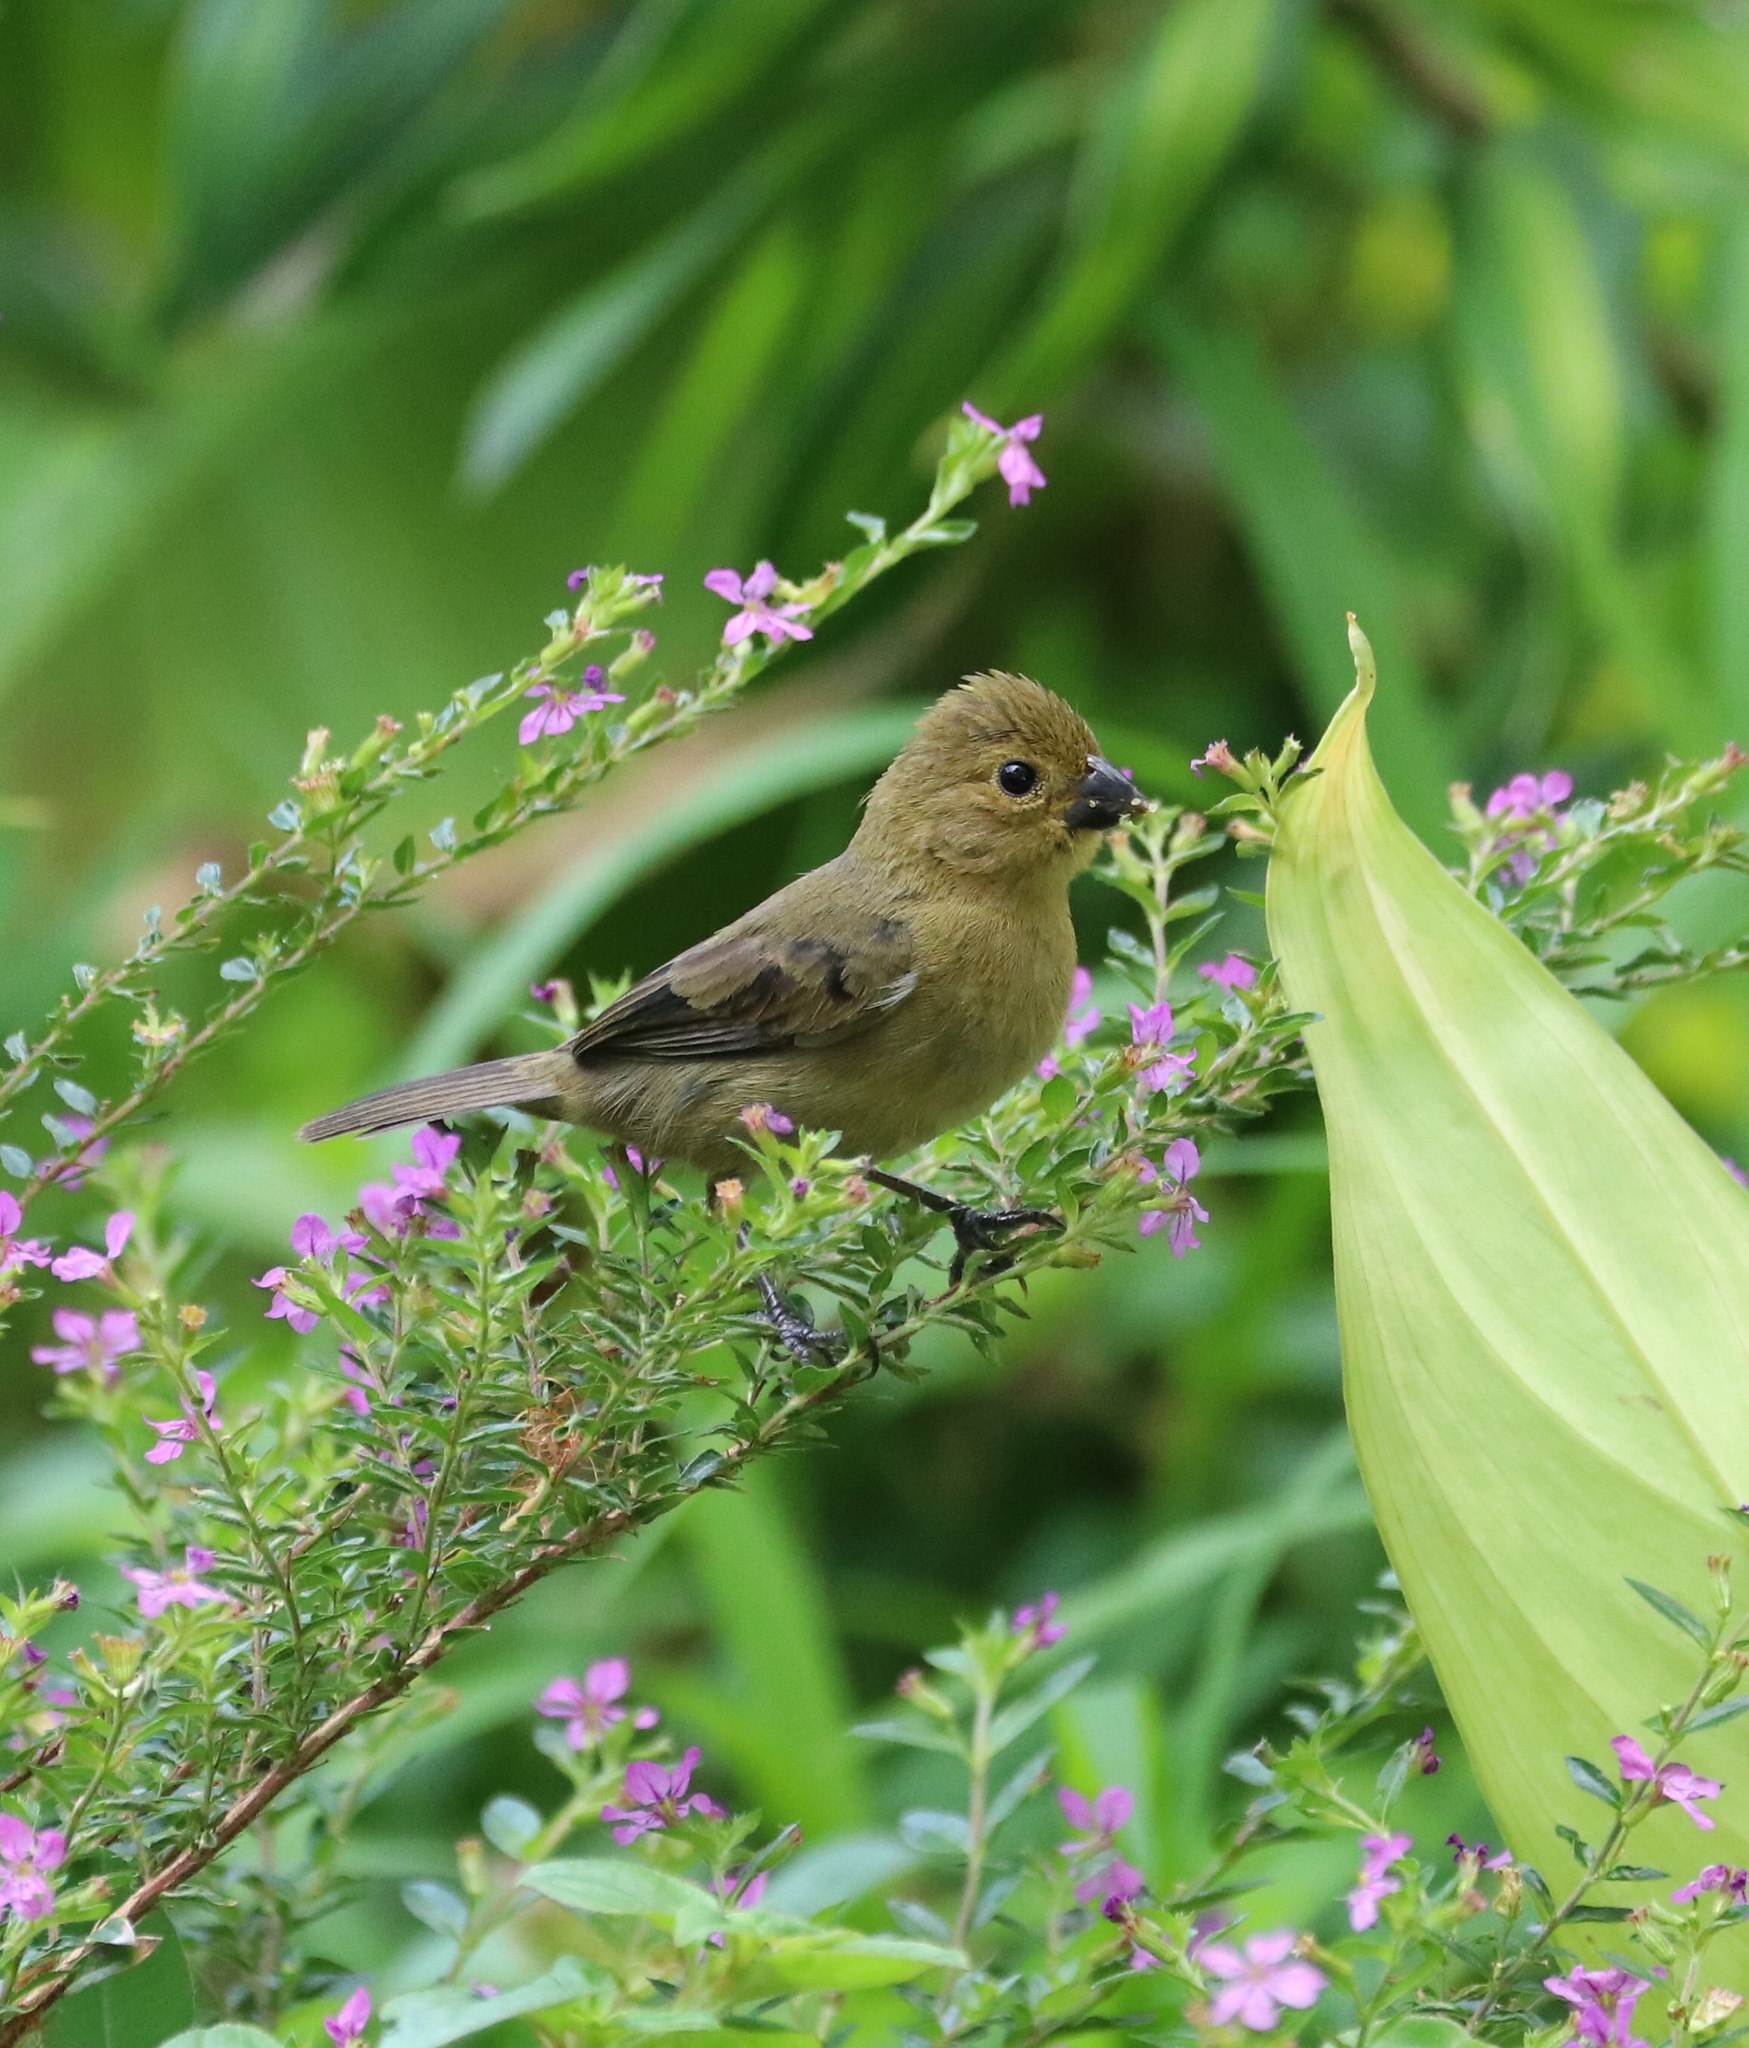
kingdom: Animalia
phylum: Chordata
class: Aves
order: Passeriformes
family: Thraupidae
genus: Sporophila
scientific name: Sporophila nigricollis
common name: Yellow-bellied seedeater
